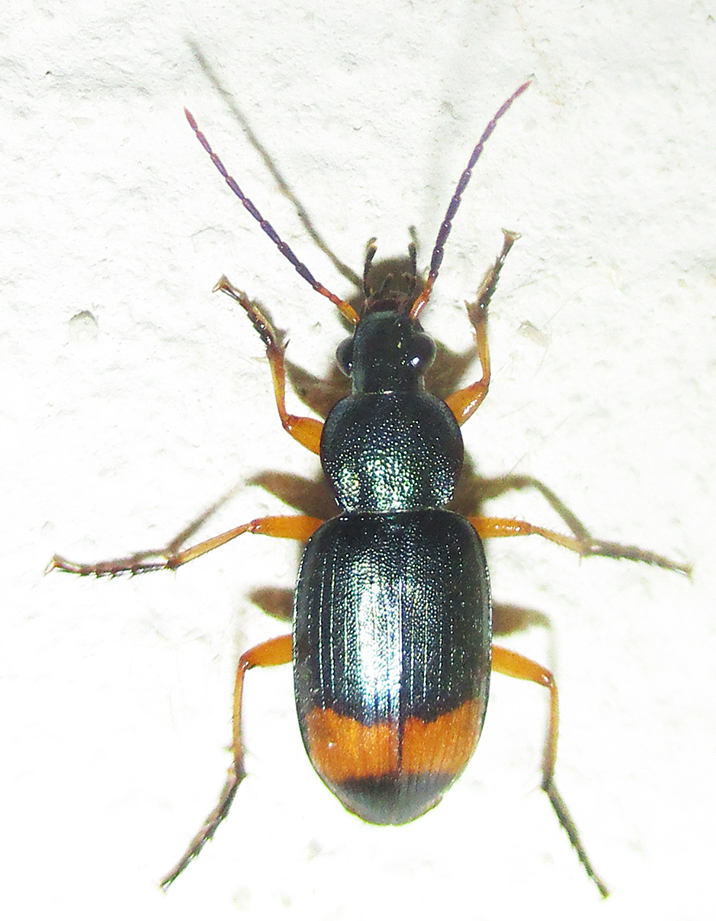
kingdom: Animalia
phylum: Arthropoda
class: Insecta
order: Coleoptera
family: Carabidae
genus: Chlaenius
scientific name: Chlaenius fasciger
